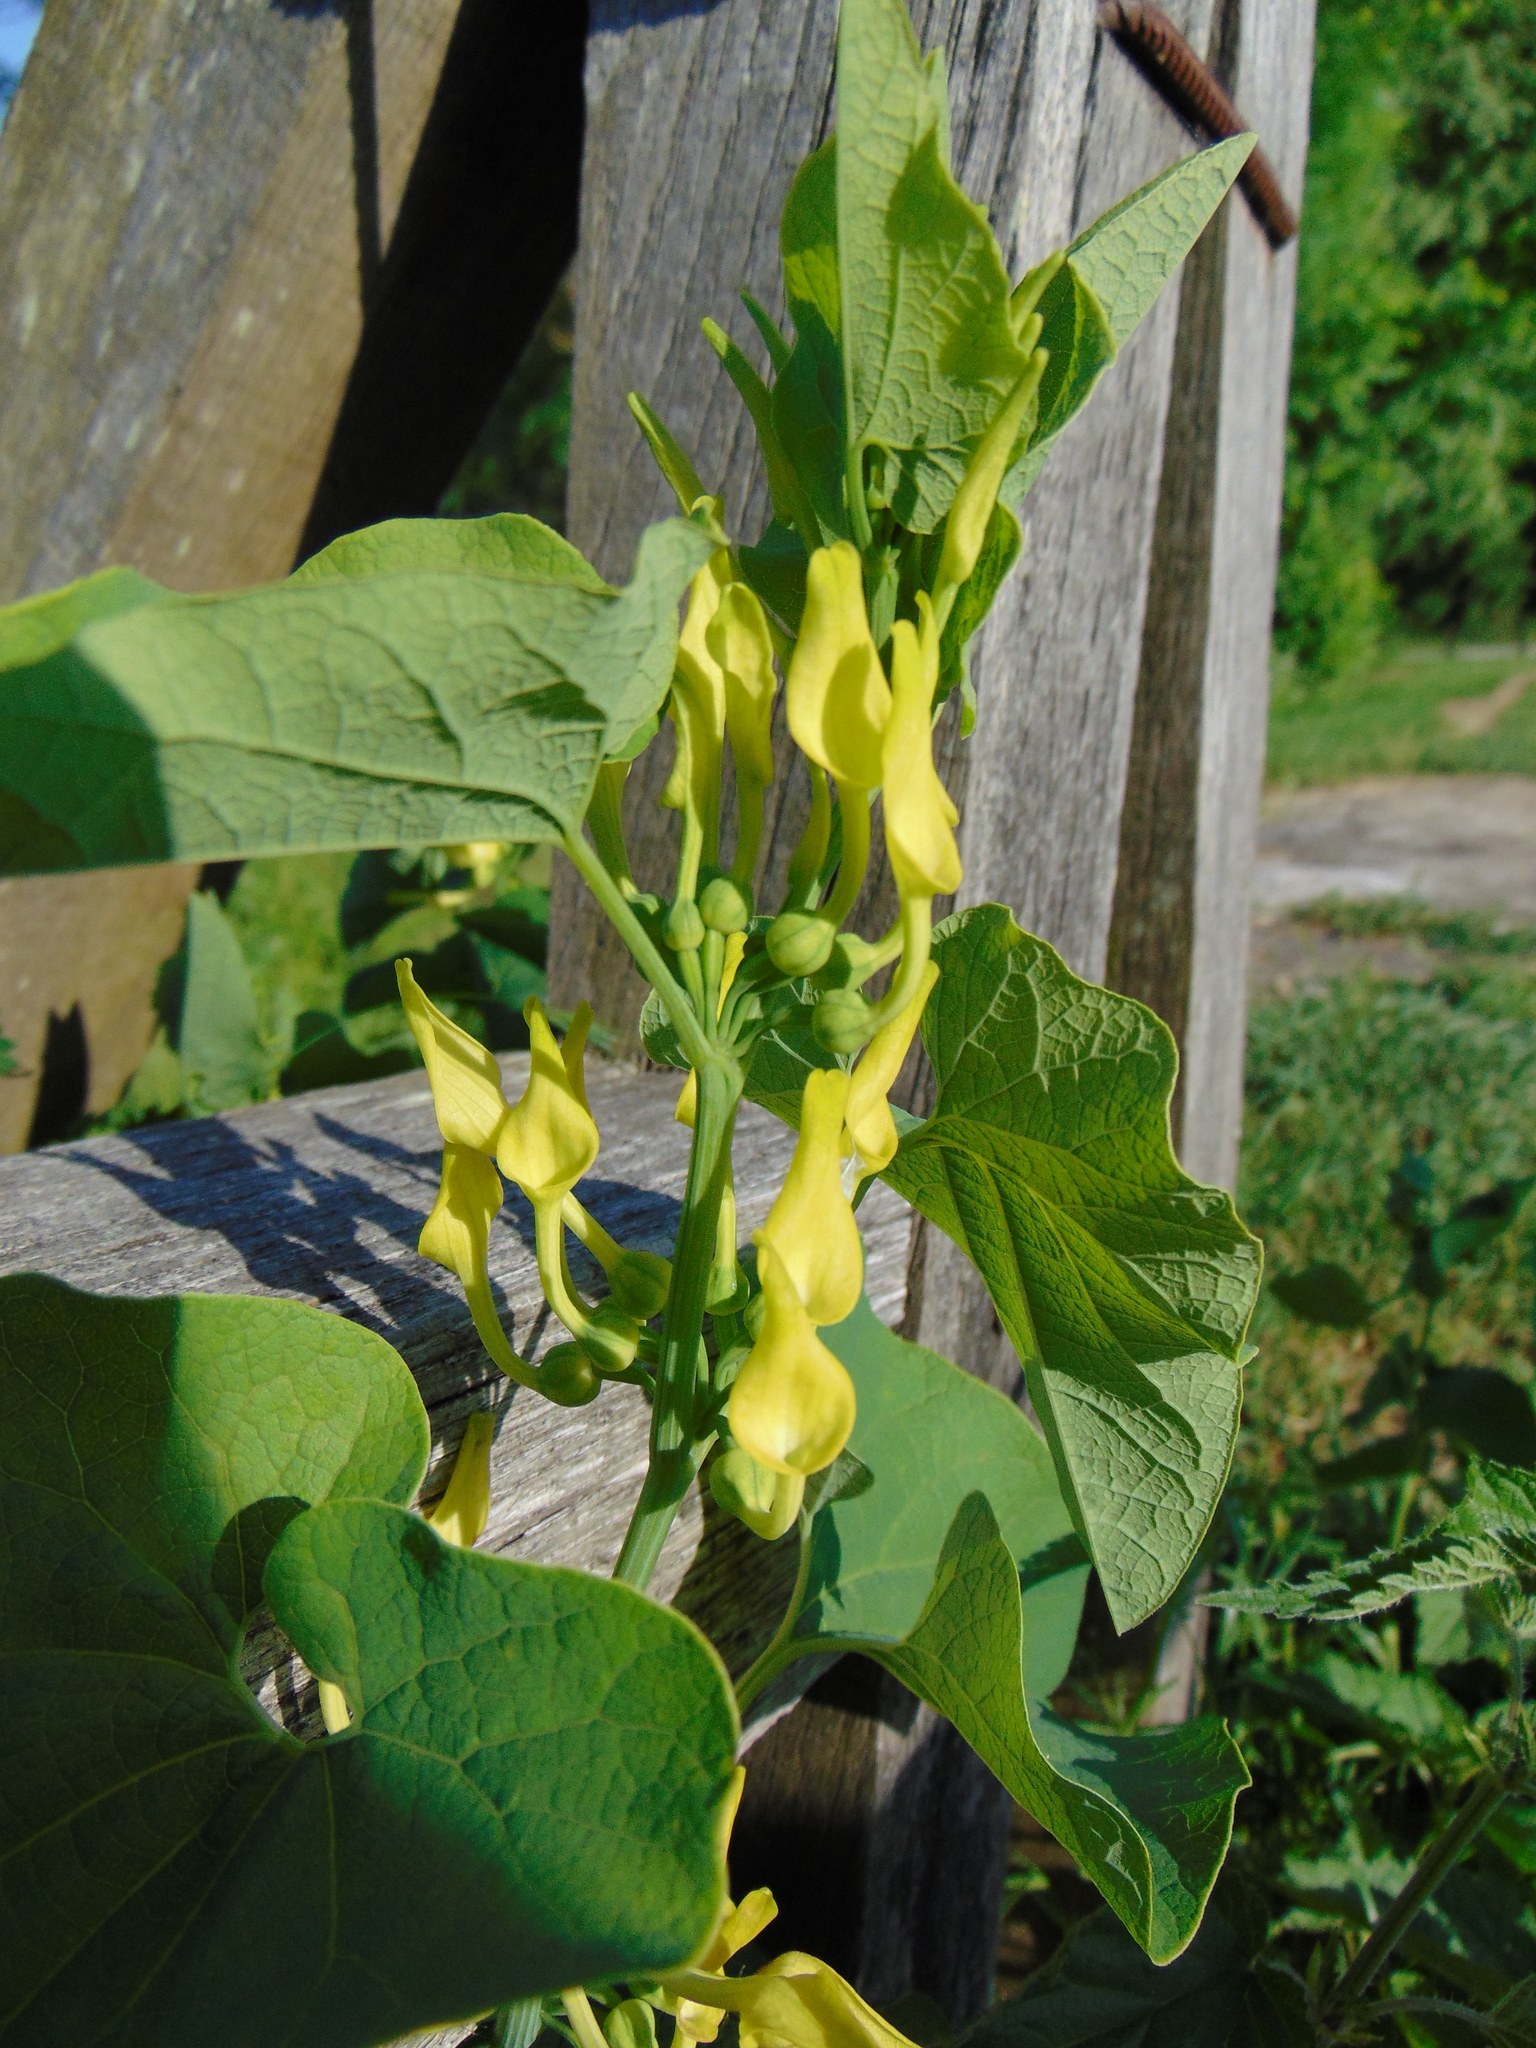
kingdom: Plantae
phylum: Tracheophyta
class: Magnoliopsida
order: Piperales
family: Aristolochiaceae
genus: Aristolochia
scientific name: Aristolochia clematitis
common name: Birthwort
